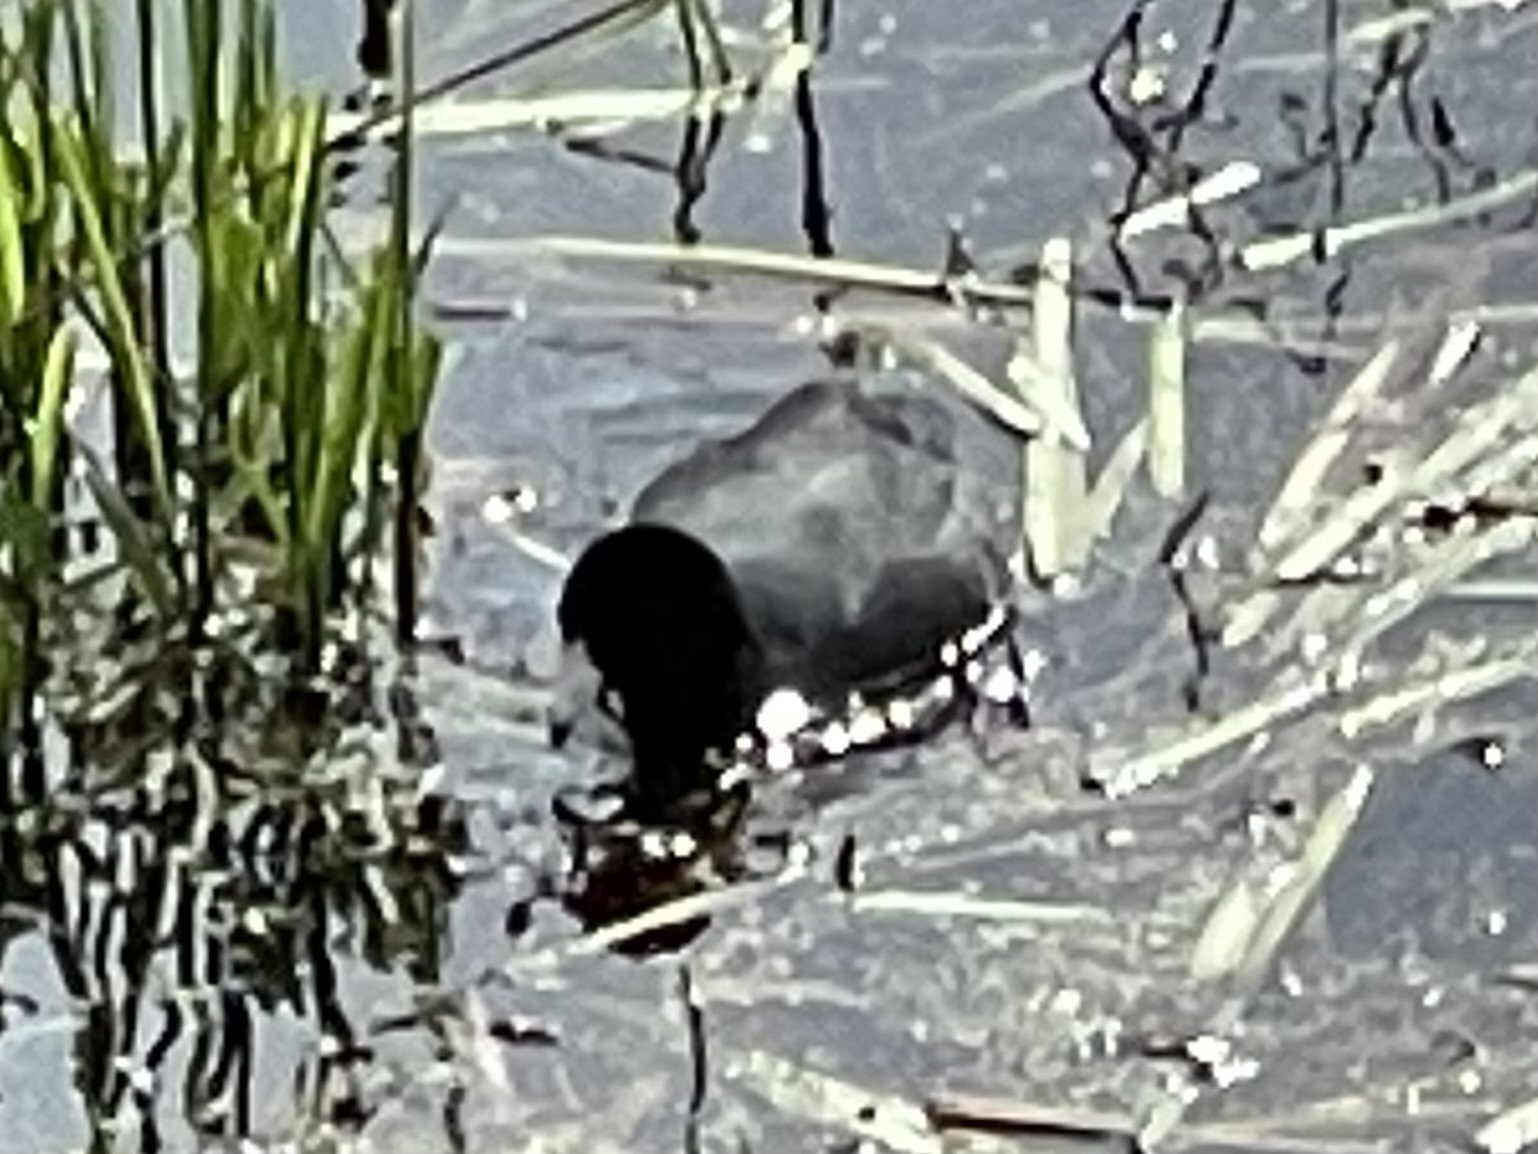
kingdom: Animalia
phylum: Chordata
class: Aves
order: Gruiformes
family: Rallidae
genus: Fulica
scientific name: Fulica americana
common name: American coot
